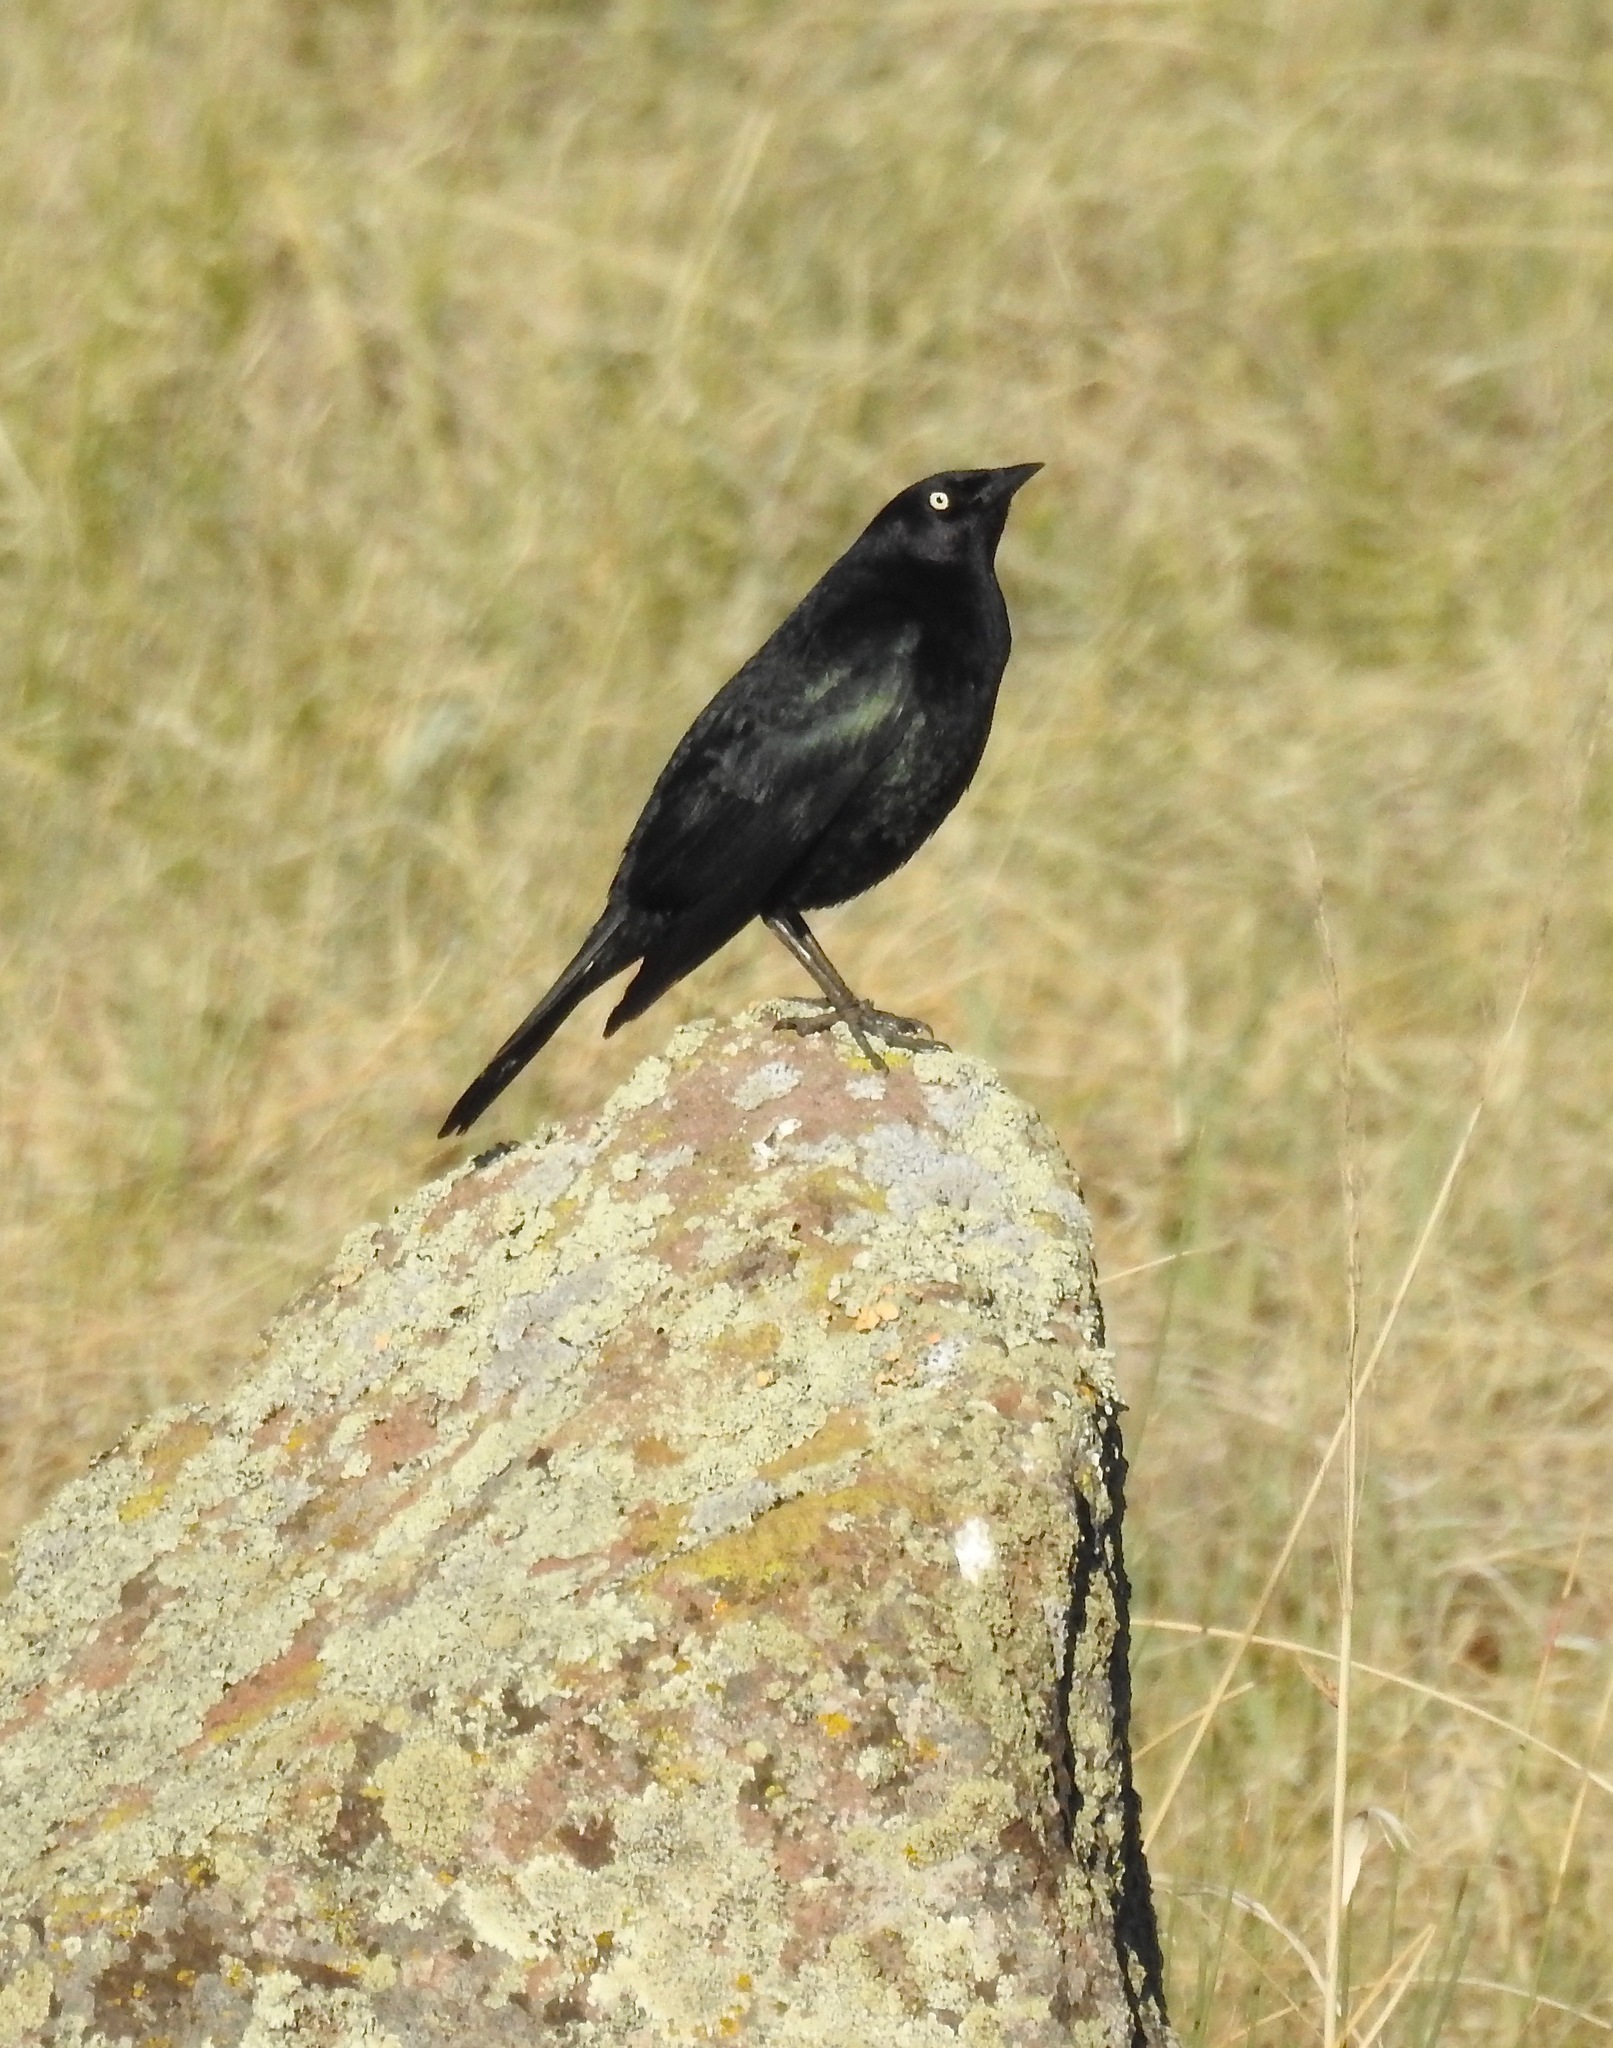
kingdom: Animalia
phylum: Chordata
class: Aves
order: Passeriformes
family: Icteridae
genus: Euphagus
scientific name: Euphagus cyanocephalus
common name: Brewer's blackbird
